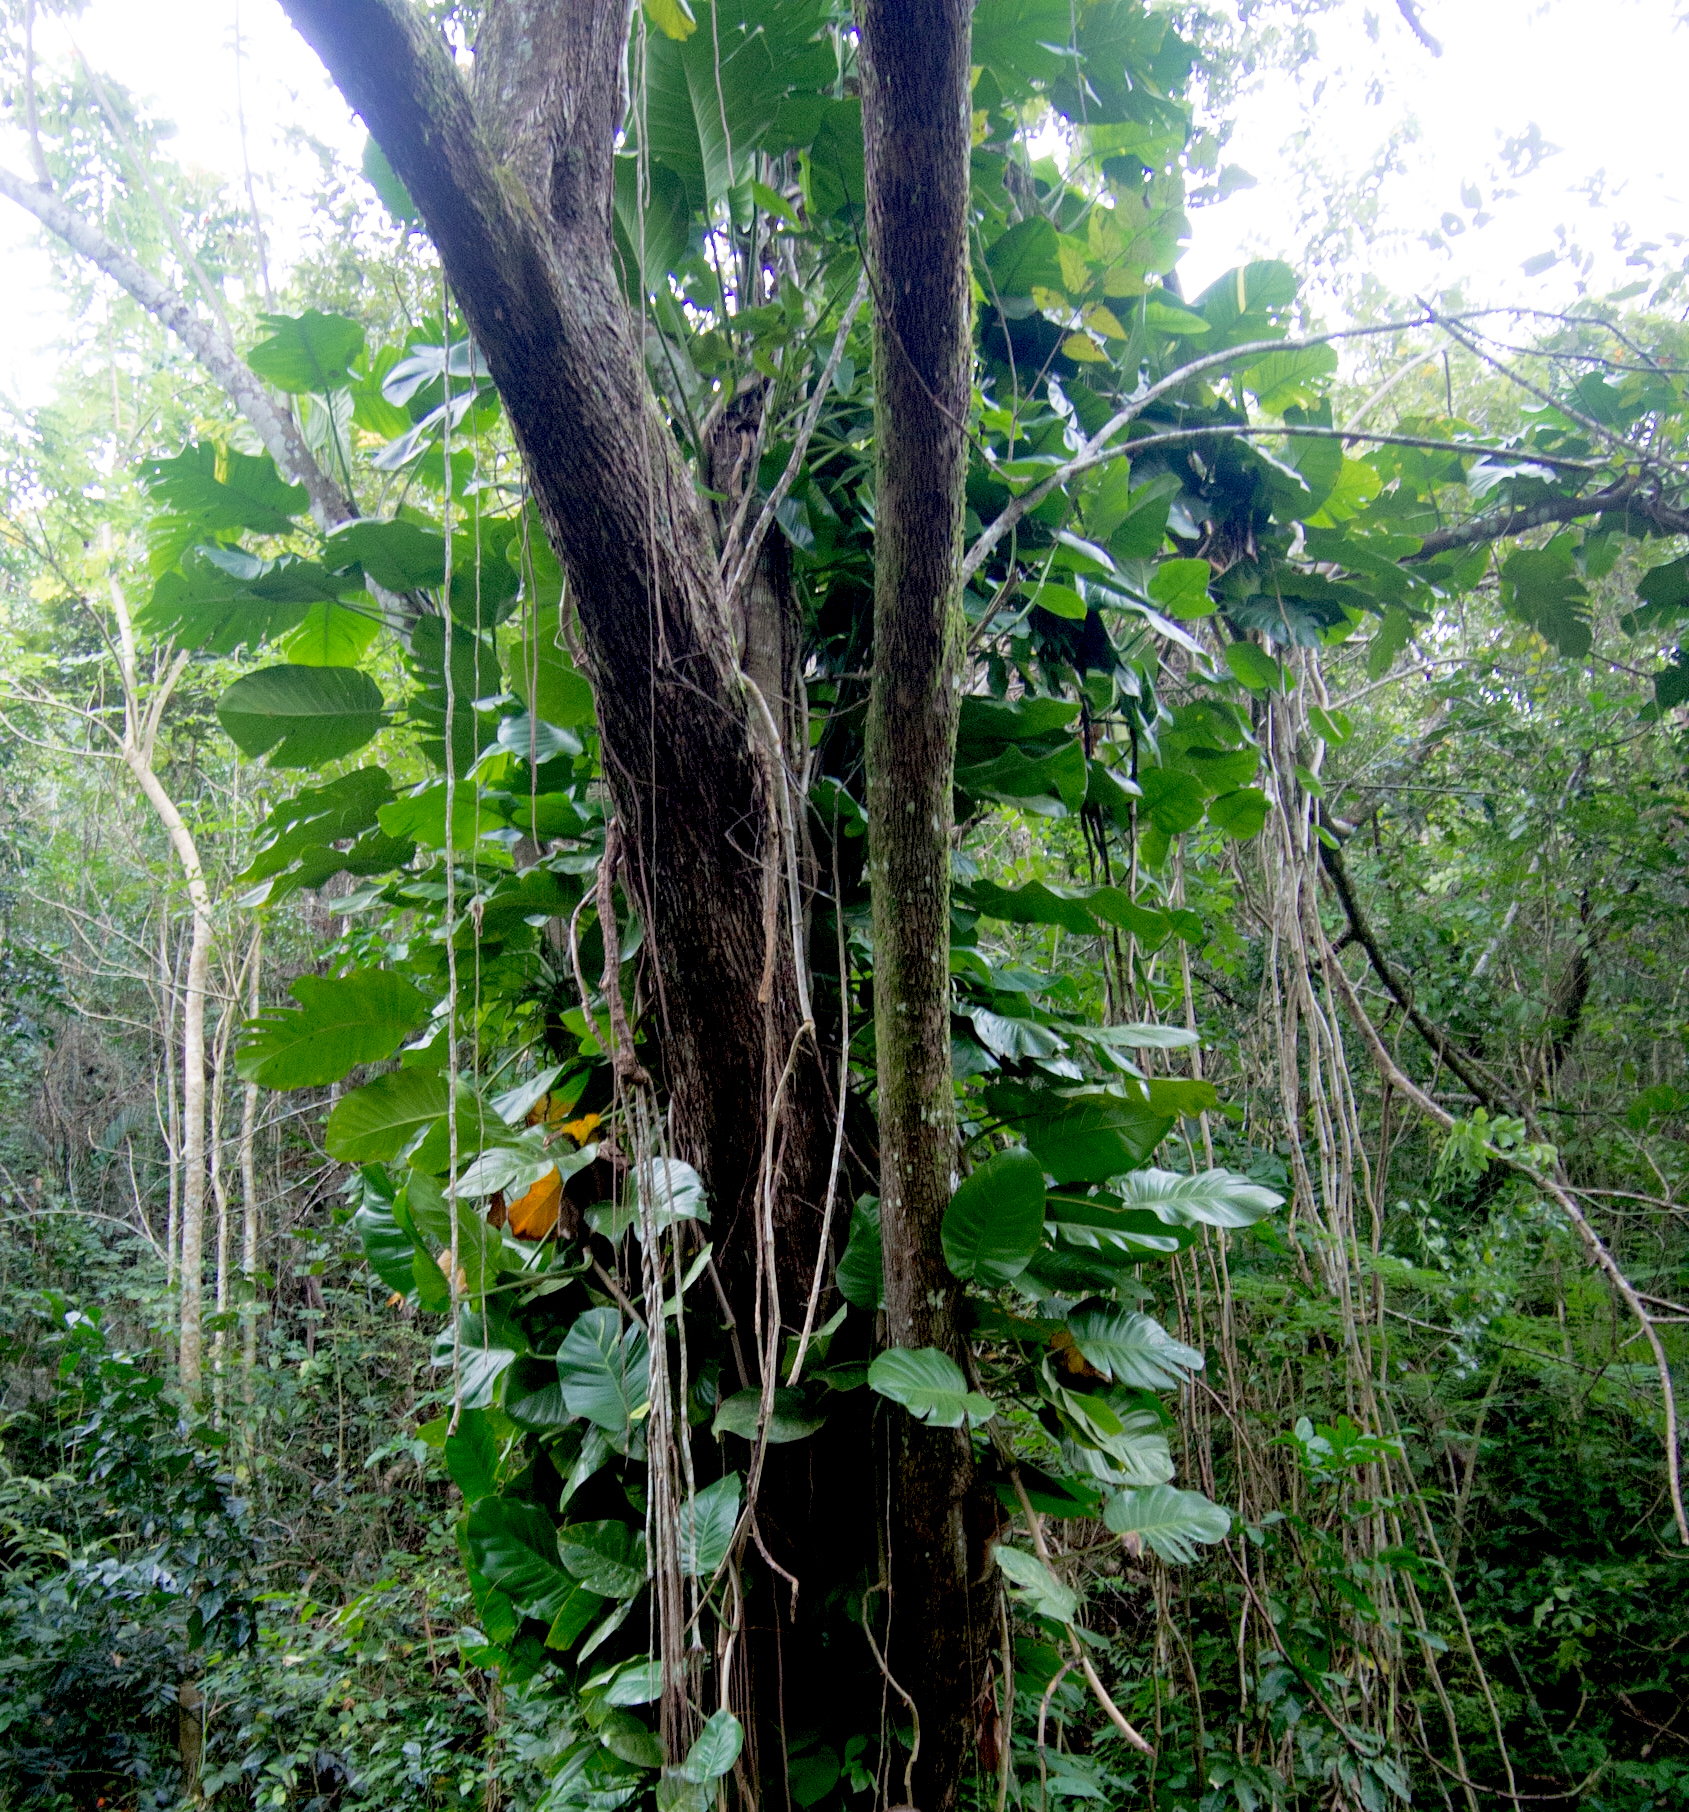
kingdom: Plantae
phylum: Tracheophyta
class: Liliopsida
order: Alismatales
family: Araceae
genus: Epipremnum
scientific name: Epipremnum aureum
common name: Golden hunter's-robe
